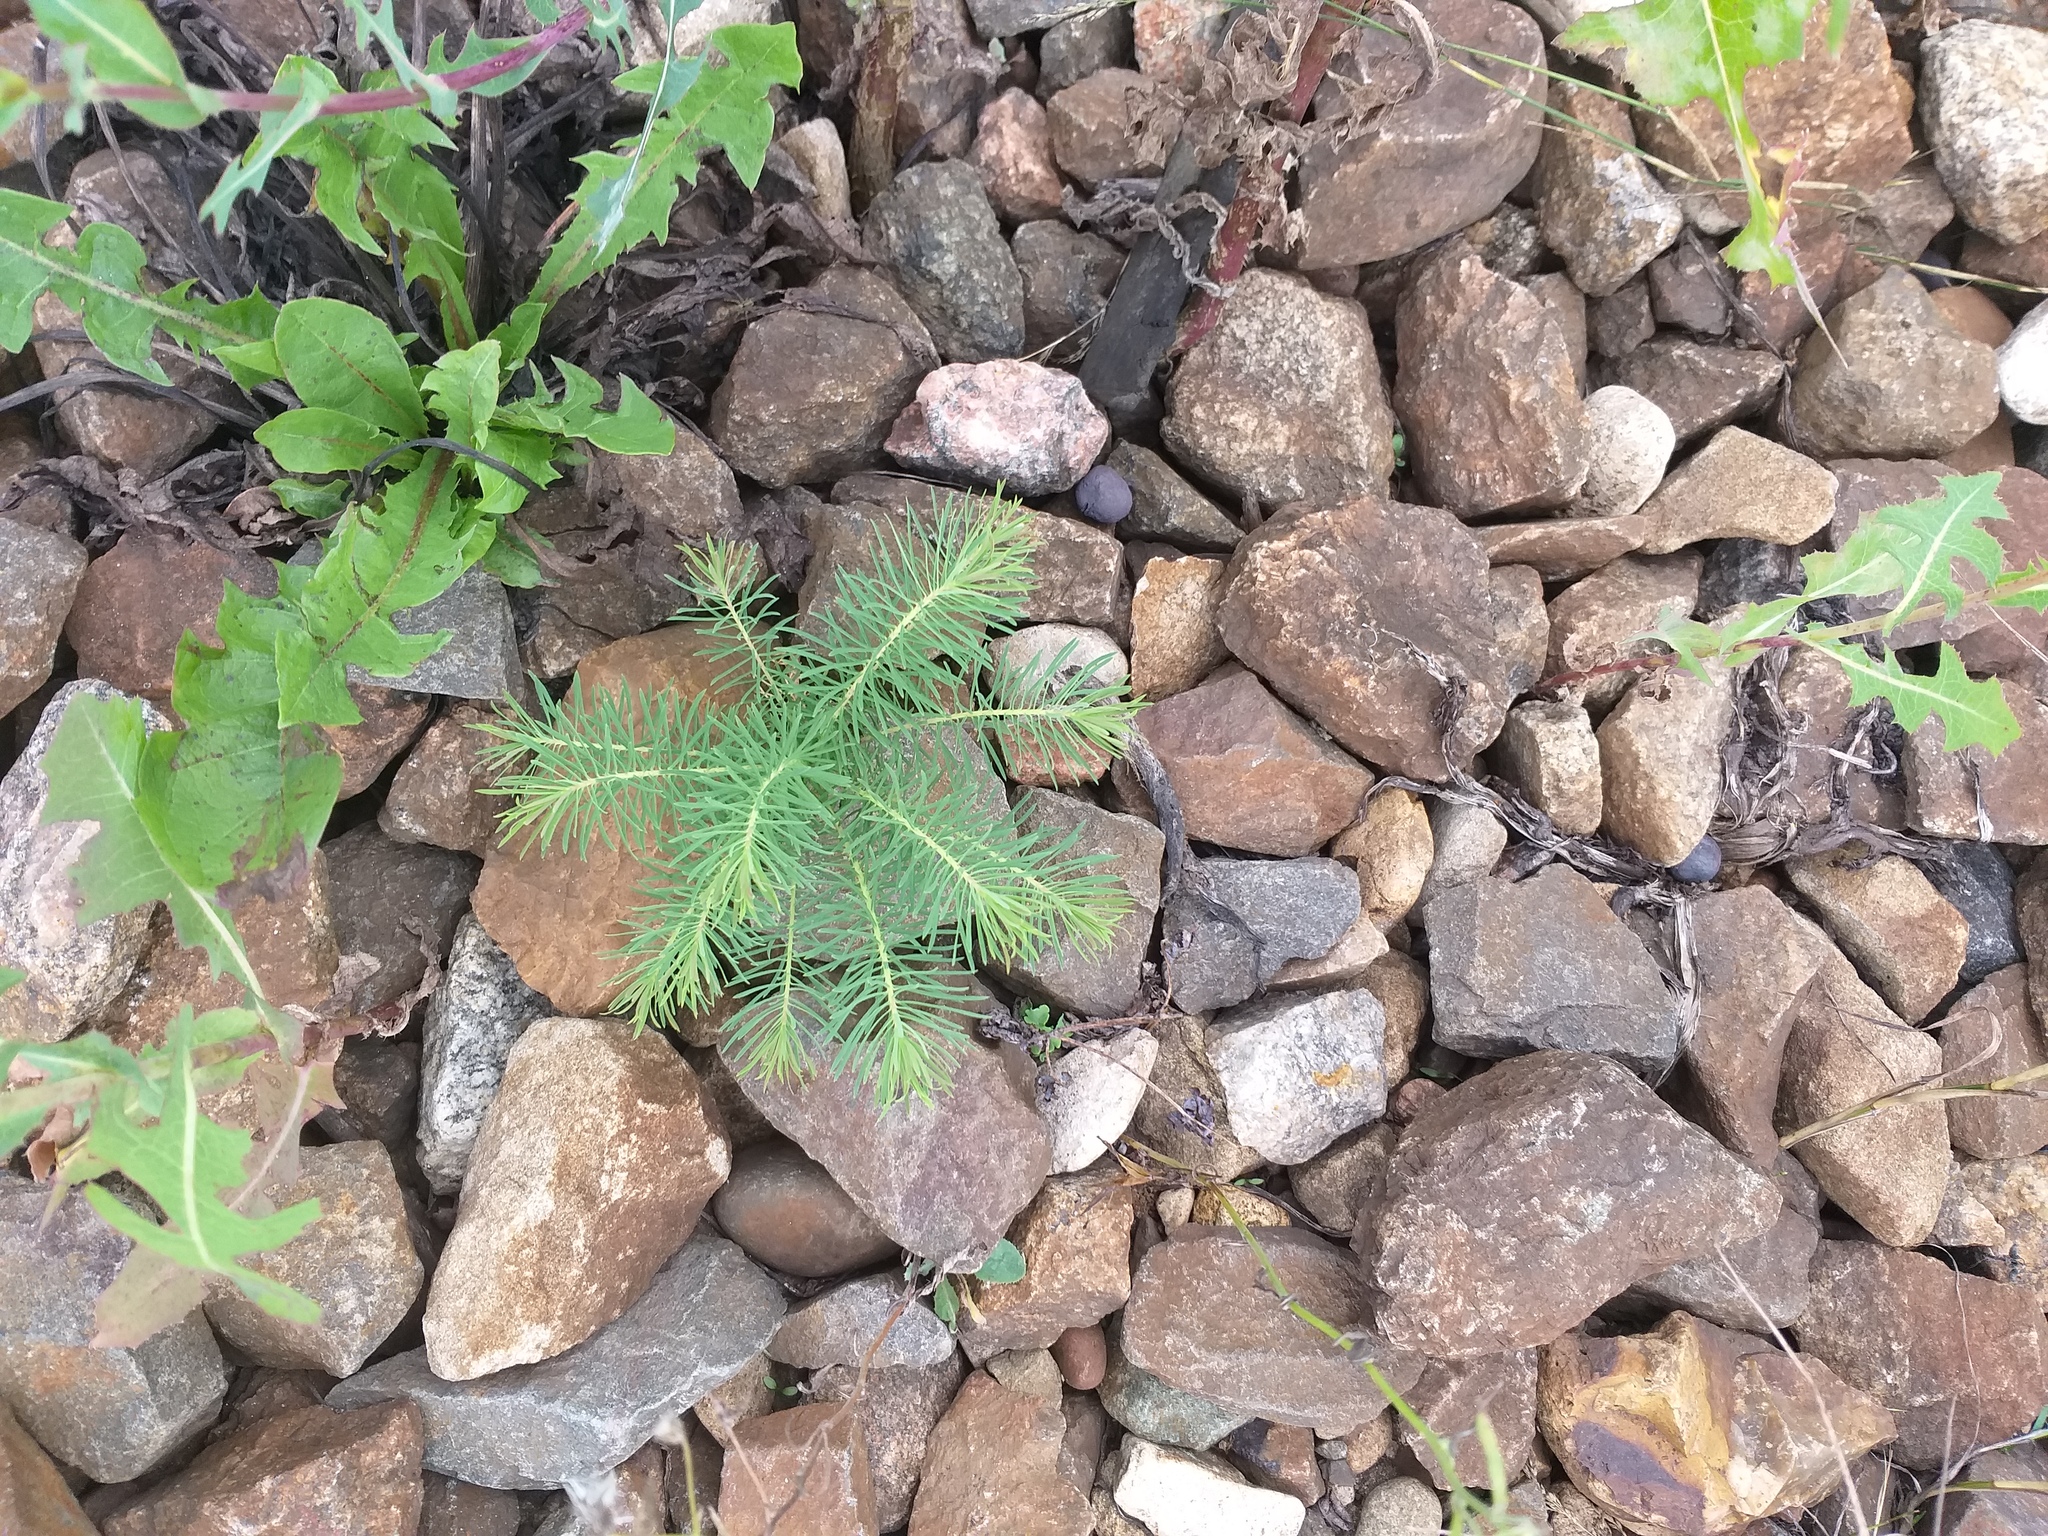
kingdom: Plantae
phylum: Tracheophyta
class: Magnoliopsida
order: Malpighiales
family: Euphorbiaceae
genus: Euphorbia
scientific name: Euphorbia cyparissias
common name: Cypress spurge
